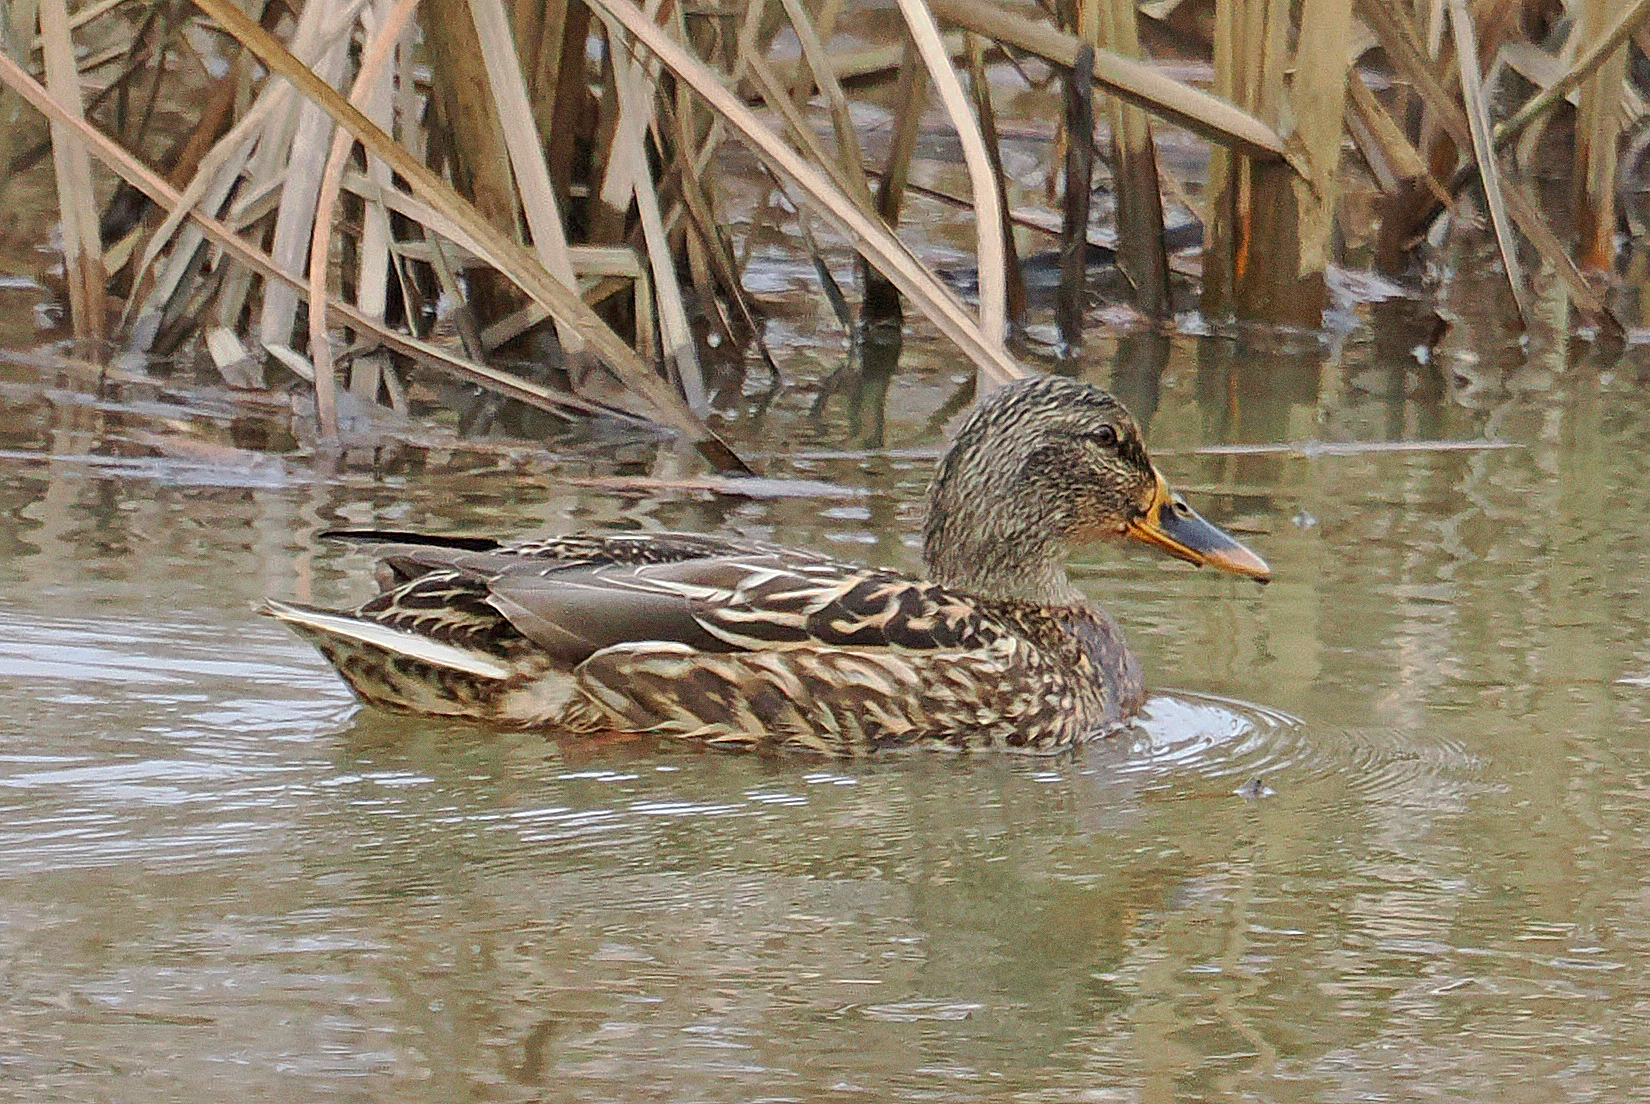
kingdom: Animalia
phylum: Chordata
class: Aves
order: Anseriformes
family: Anatidae
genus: Anas
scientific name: Anas platyrhynchos
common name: Mallard
